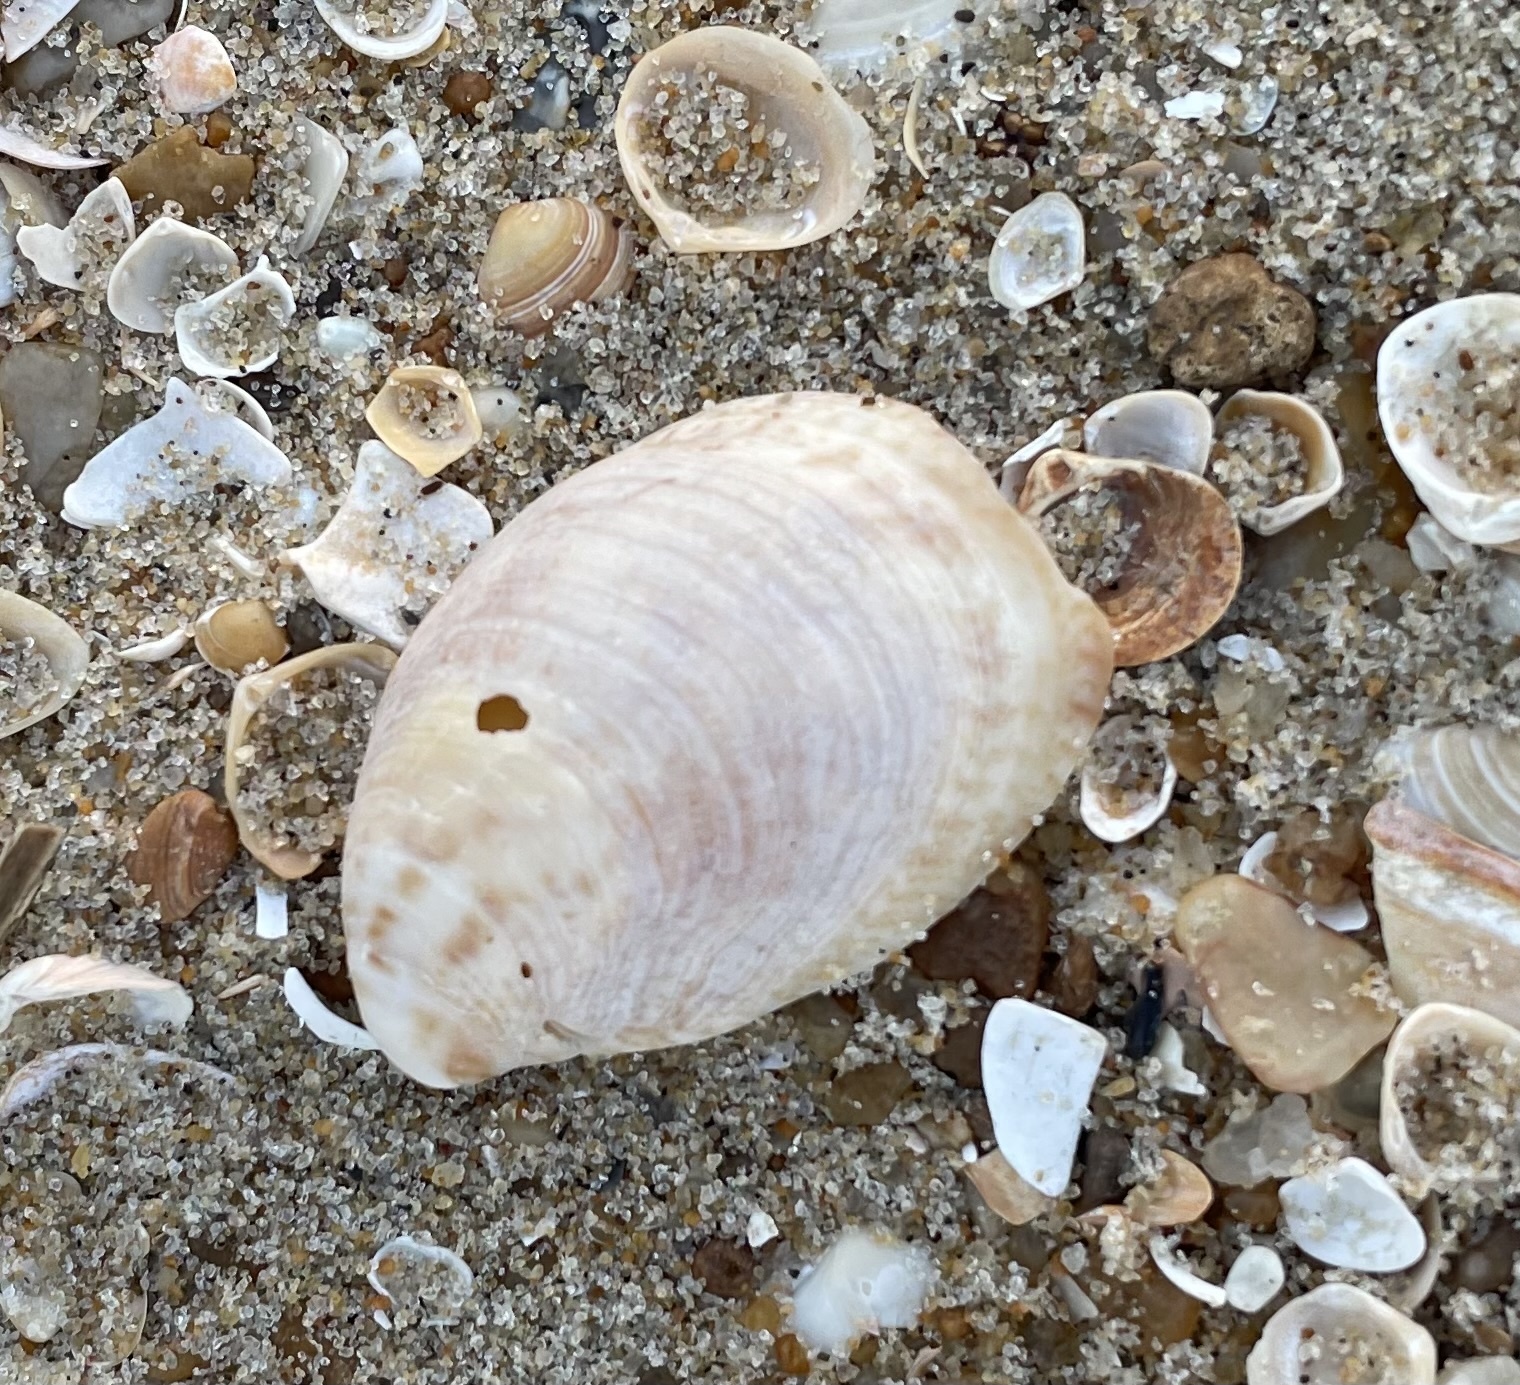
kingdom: Animalia
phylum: Mollusca
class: Gastropoda
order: Littorinimorpha
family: Calyptraeidae
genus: Crepidula
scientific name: Crepidula fornicata
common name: Slipper limpet
